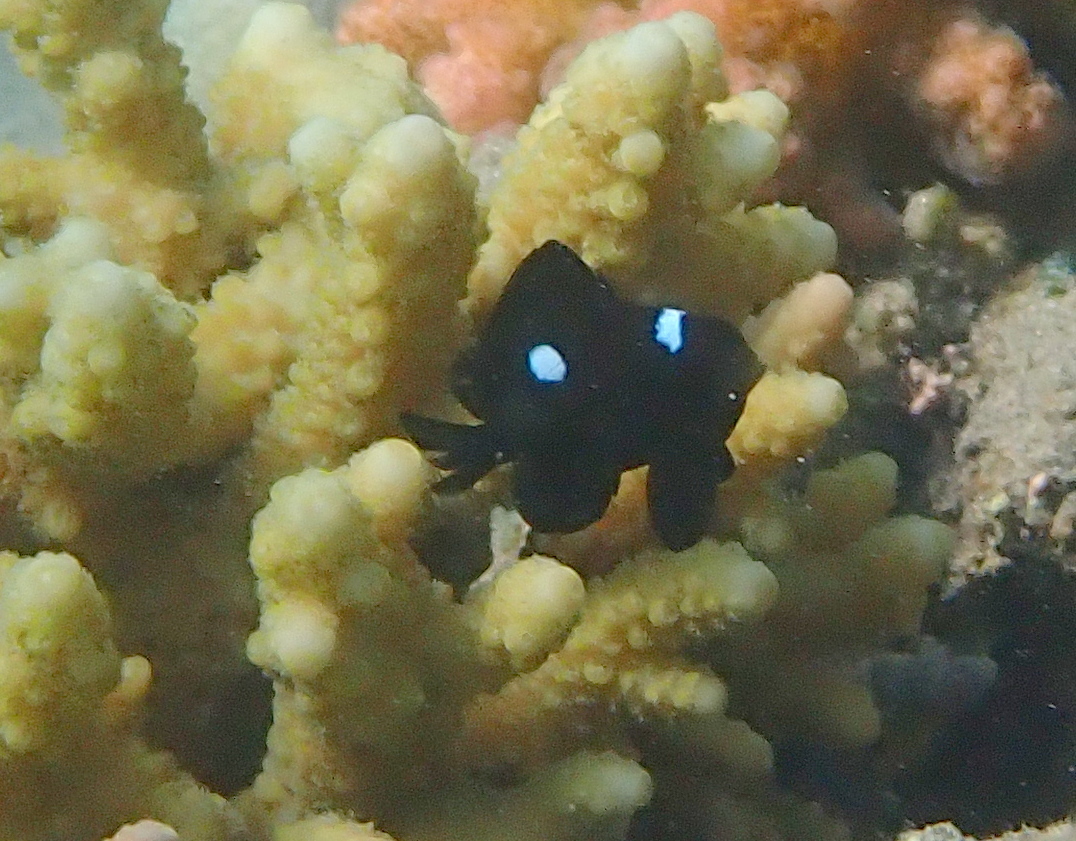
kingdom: Animalia
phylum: Chordata
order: Perciformes
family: Pomacentridae
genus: Dascyllus
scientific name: Dascyllus trimaculatus
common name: Threespot dascyllus
